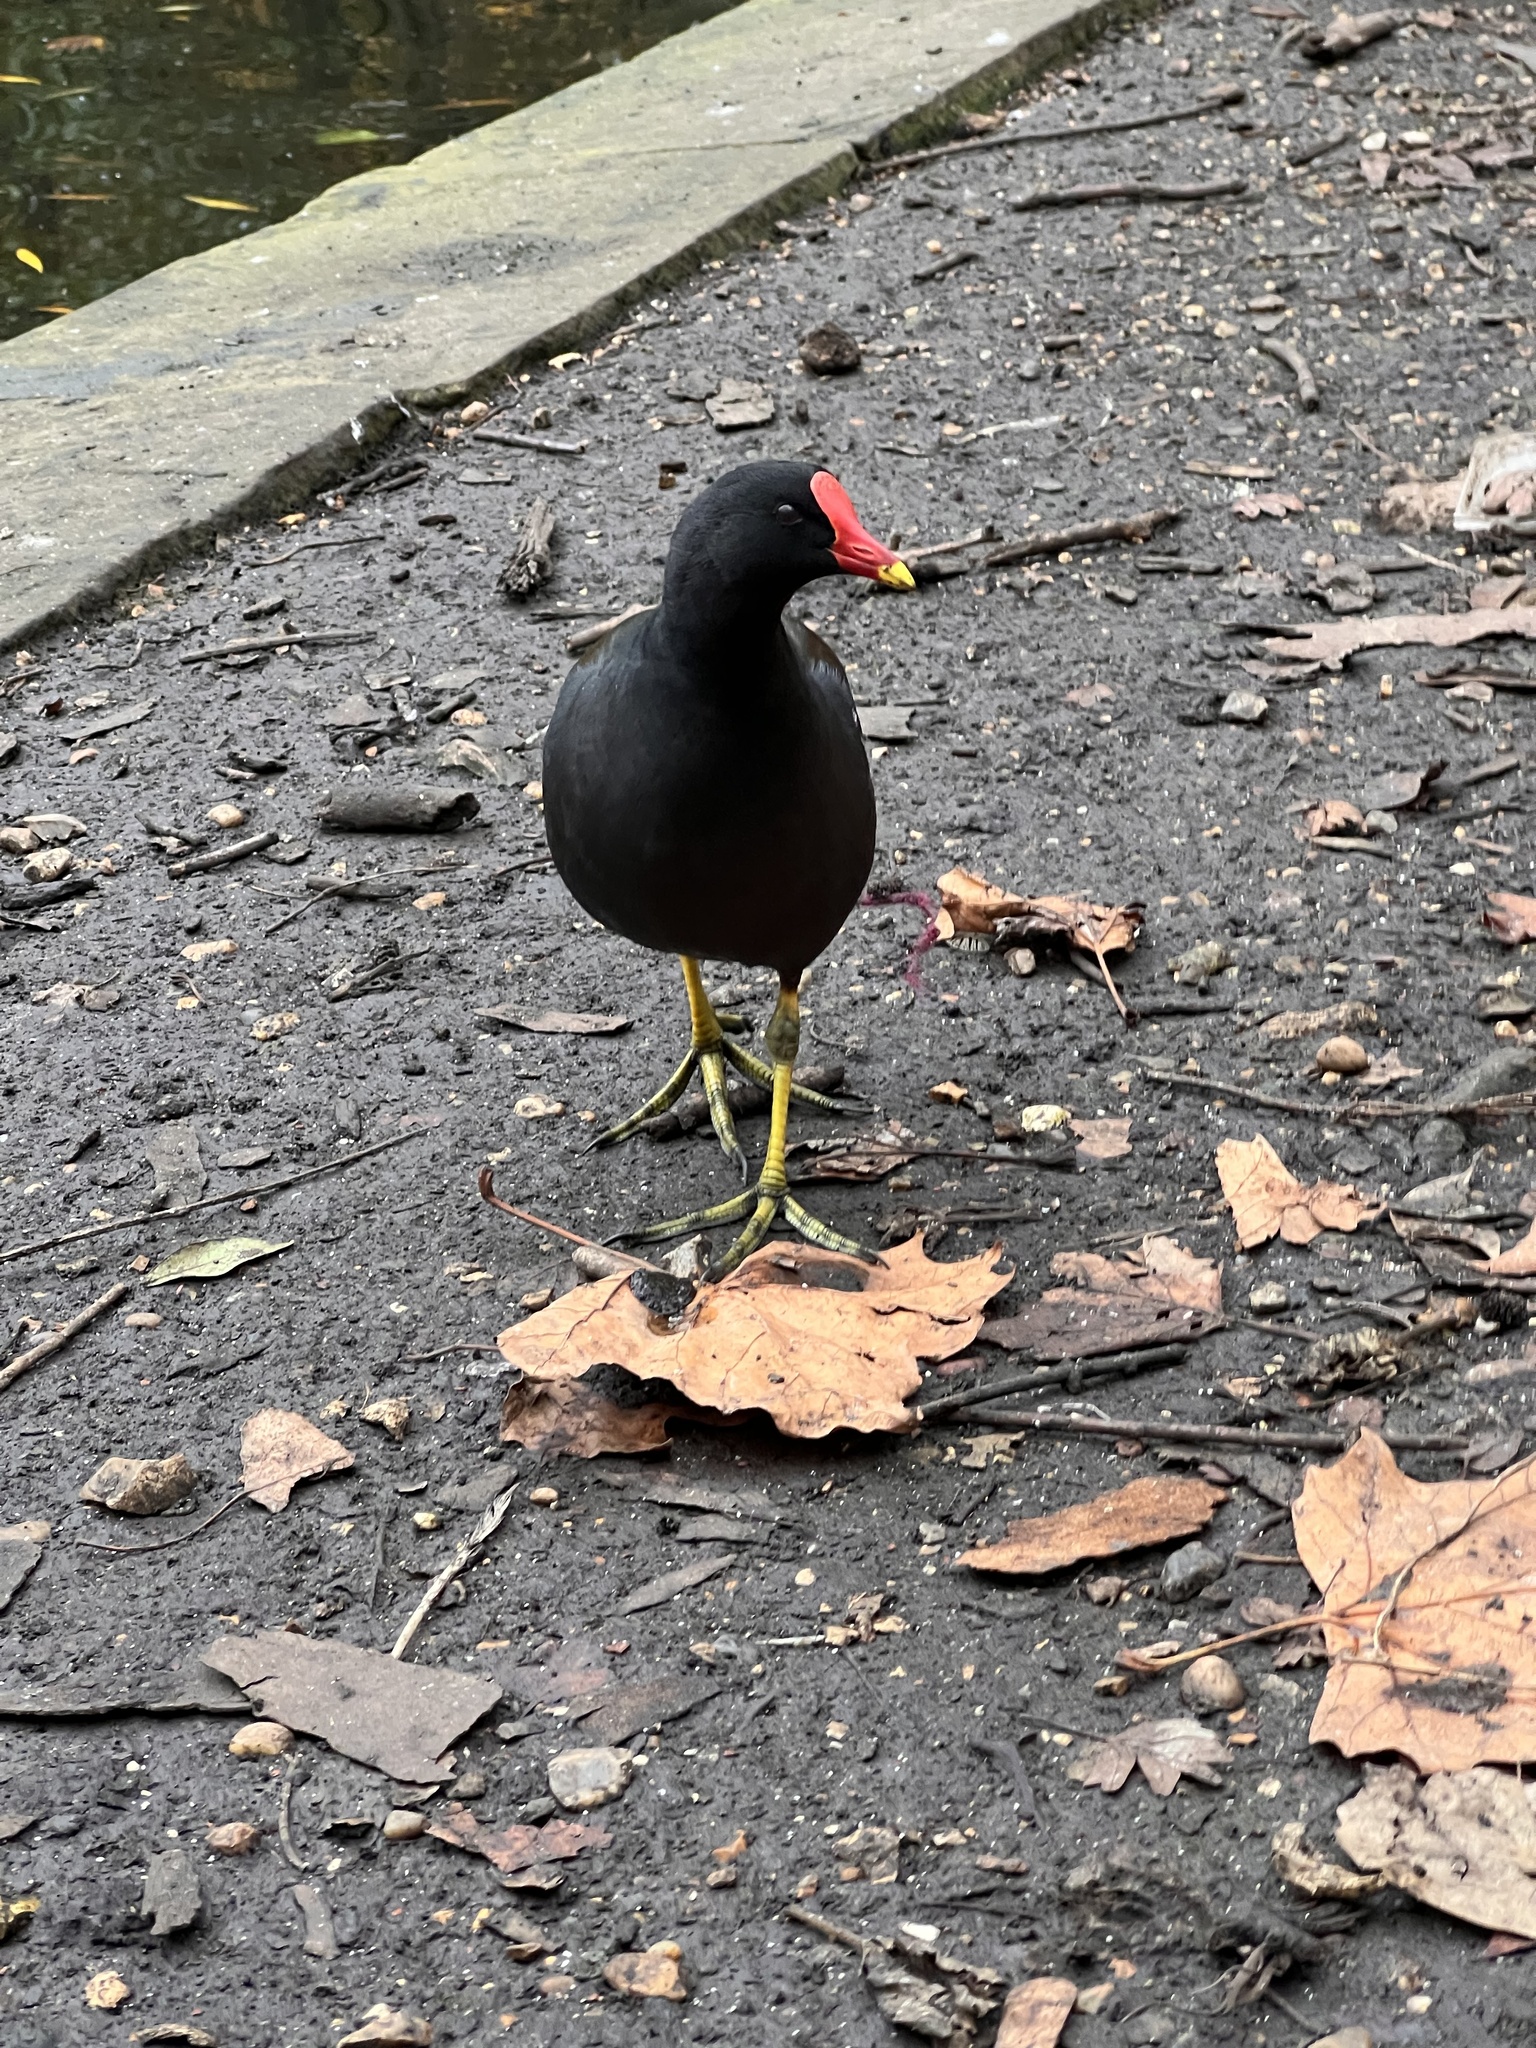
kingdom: Animalia
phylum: Chordata
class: Aves
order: Gruiformes
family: Rallidae
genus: Gallinula
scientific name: Gallinula chloropus
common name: Common moorhen
